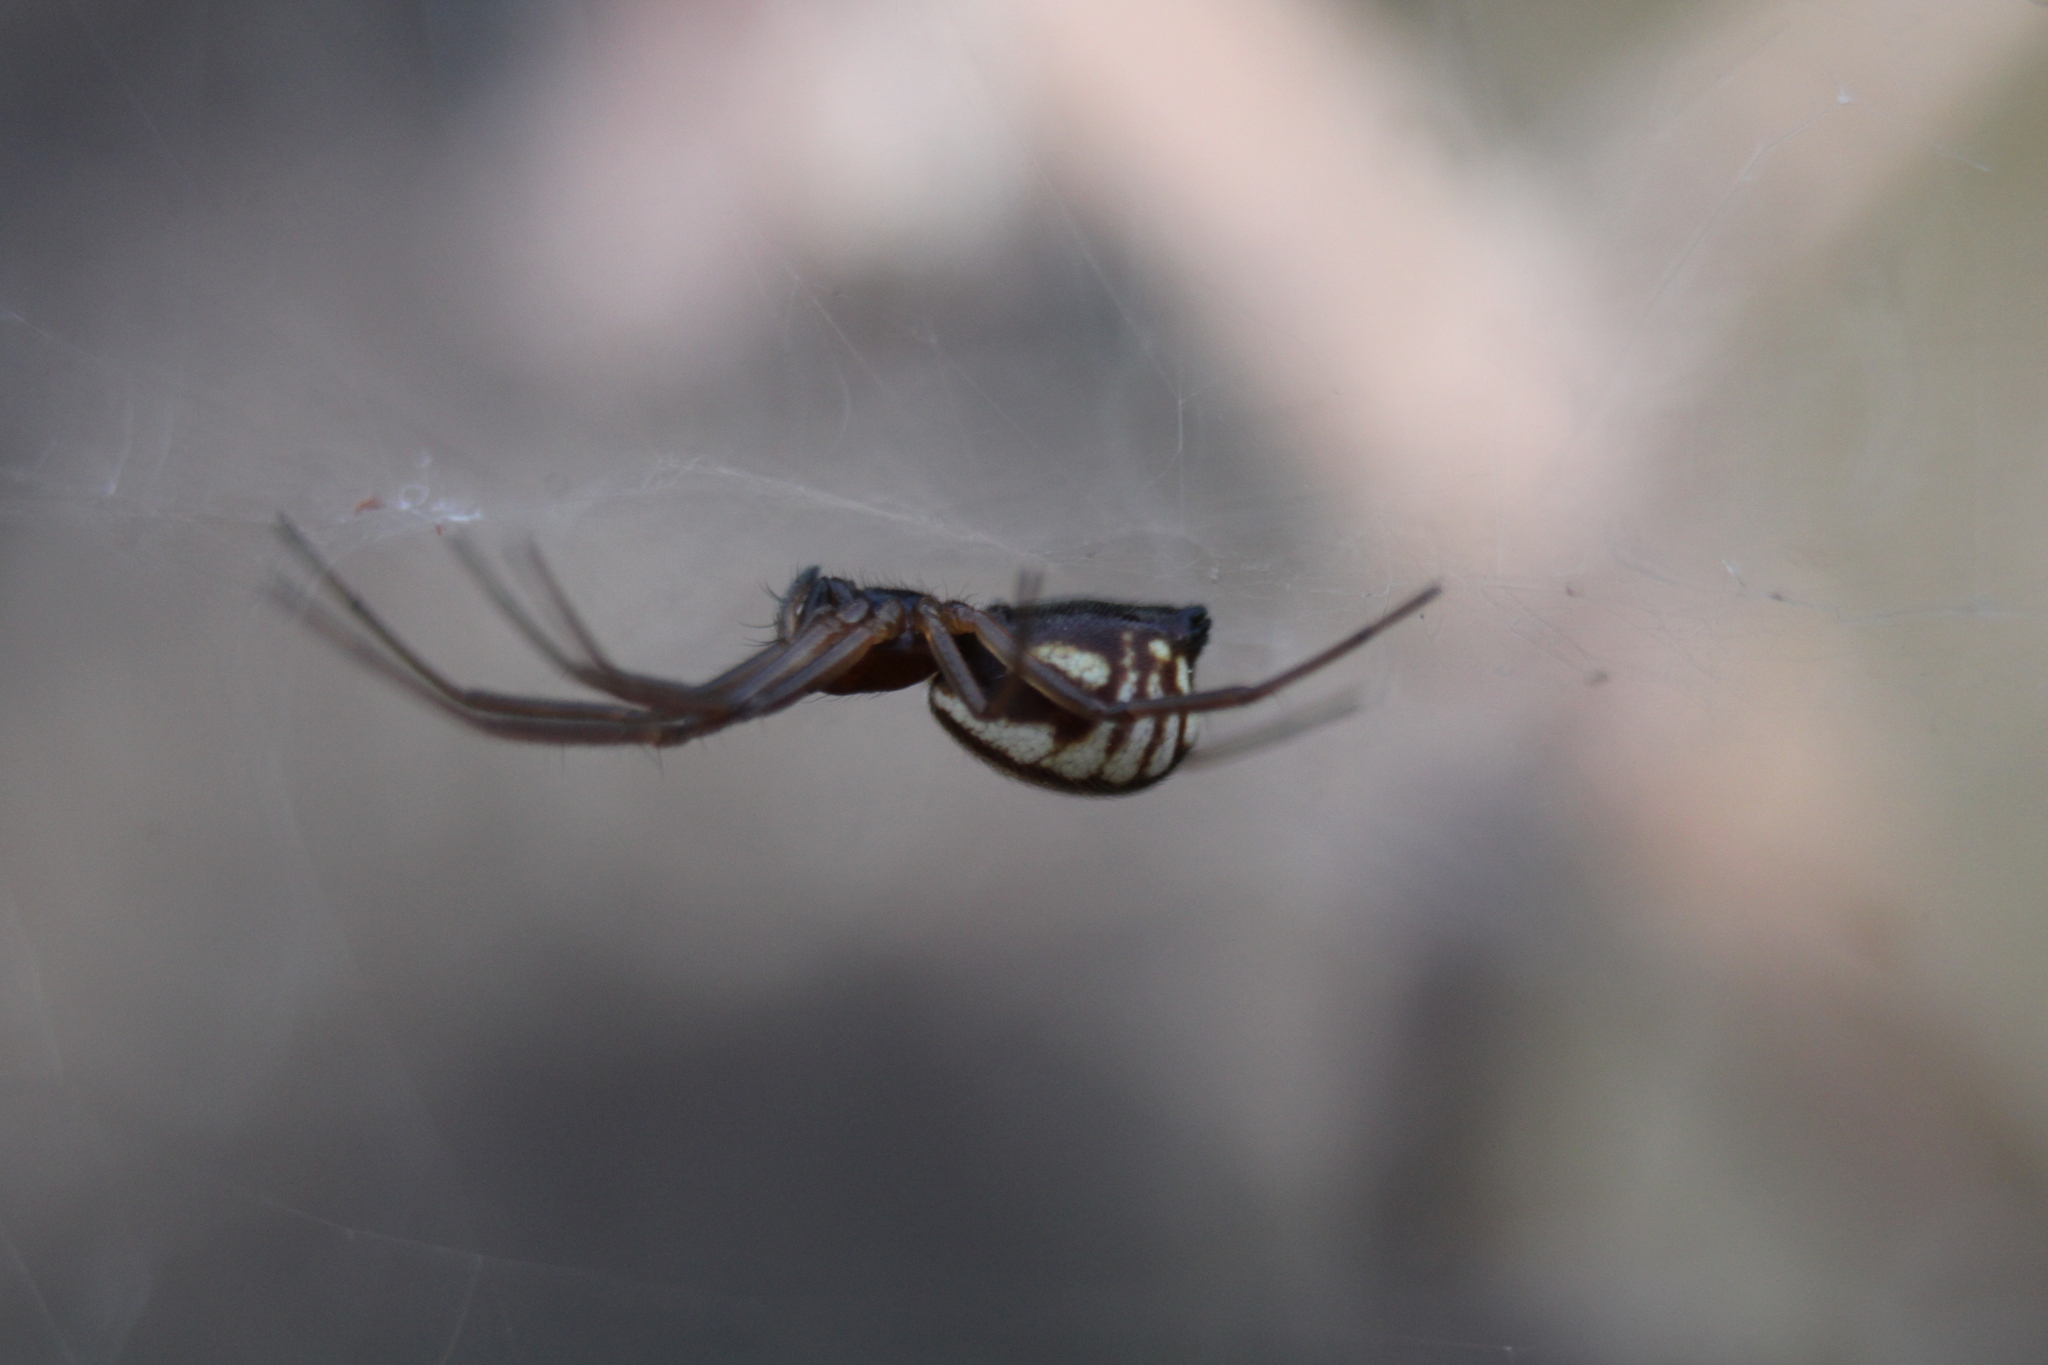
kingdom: Animalia
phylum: Arthropoda
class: Arachnida
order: Araneae
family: Linyphiidae
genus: Frontinella
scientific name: Frontinella pyramitela
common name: Bowl-and-doily spider
